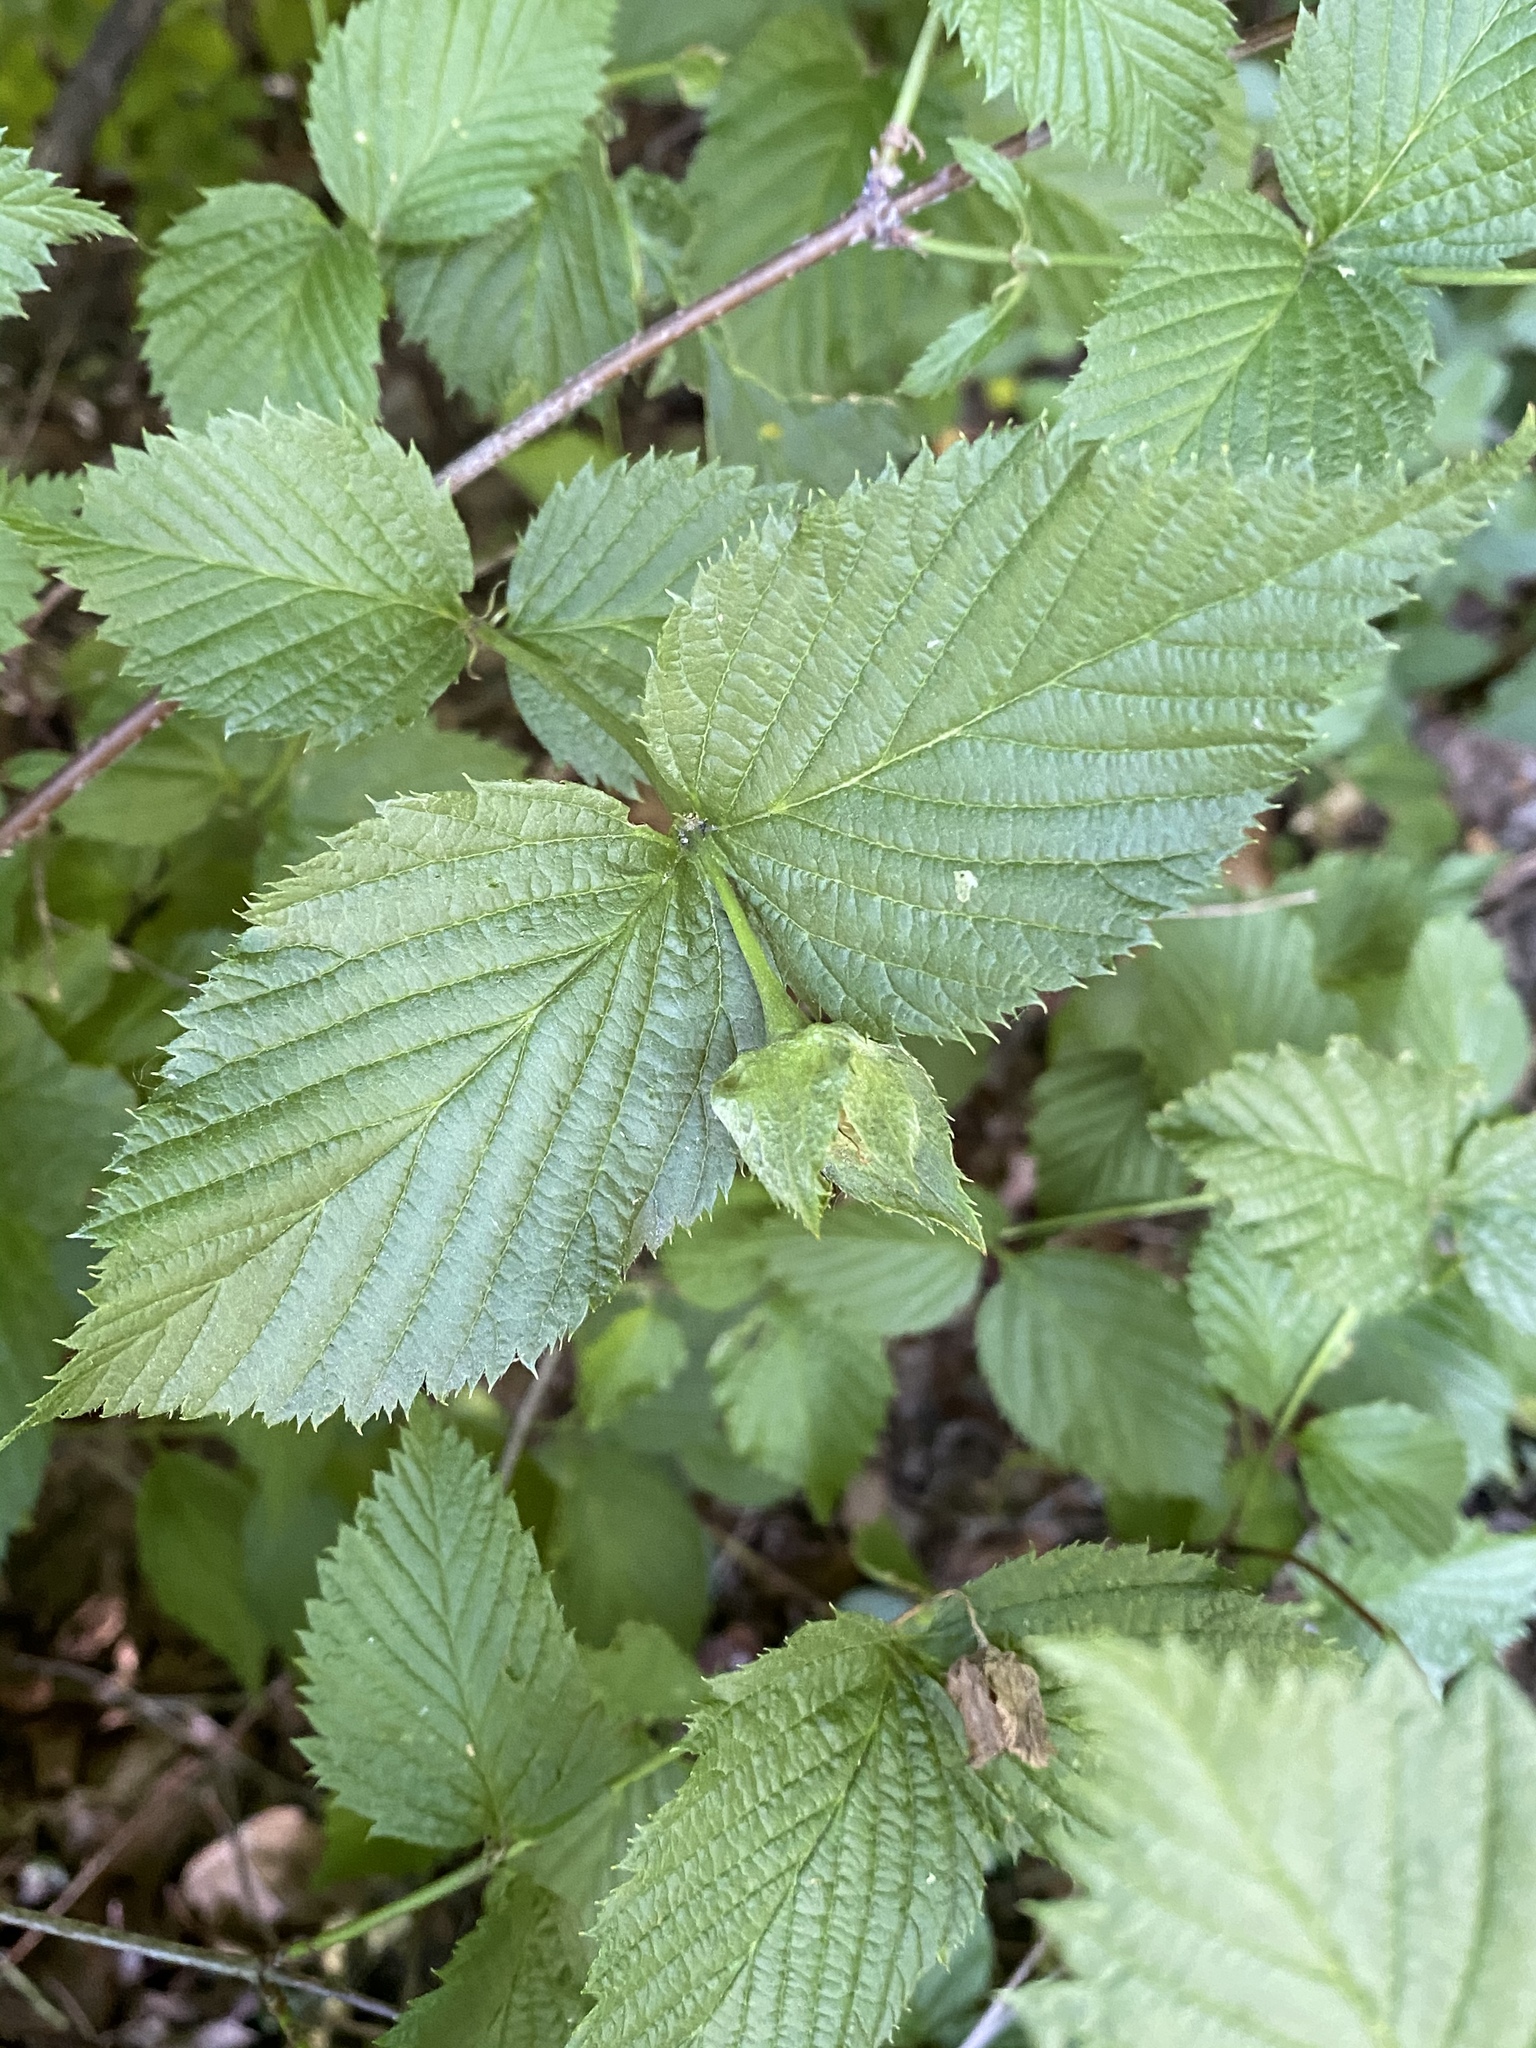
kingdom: Plantae
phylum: Tracheophyta
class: Magnoliopsida
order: Rosales
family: Rosaceae
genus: Rhodotypos
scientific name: Rhodotypos scandens
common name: Jetbead
